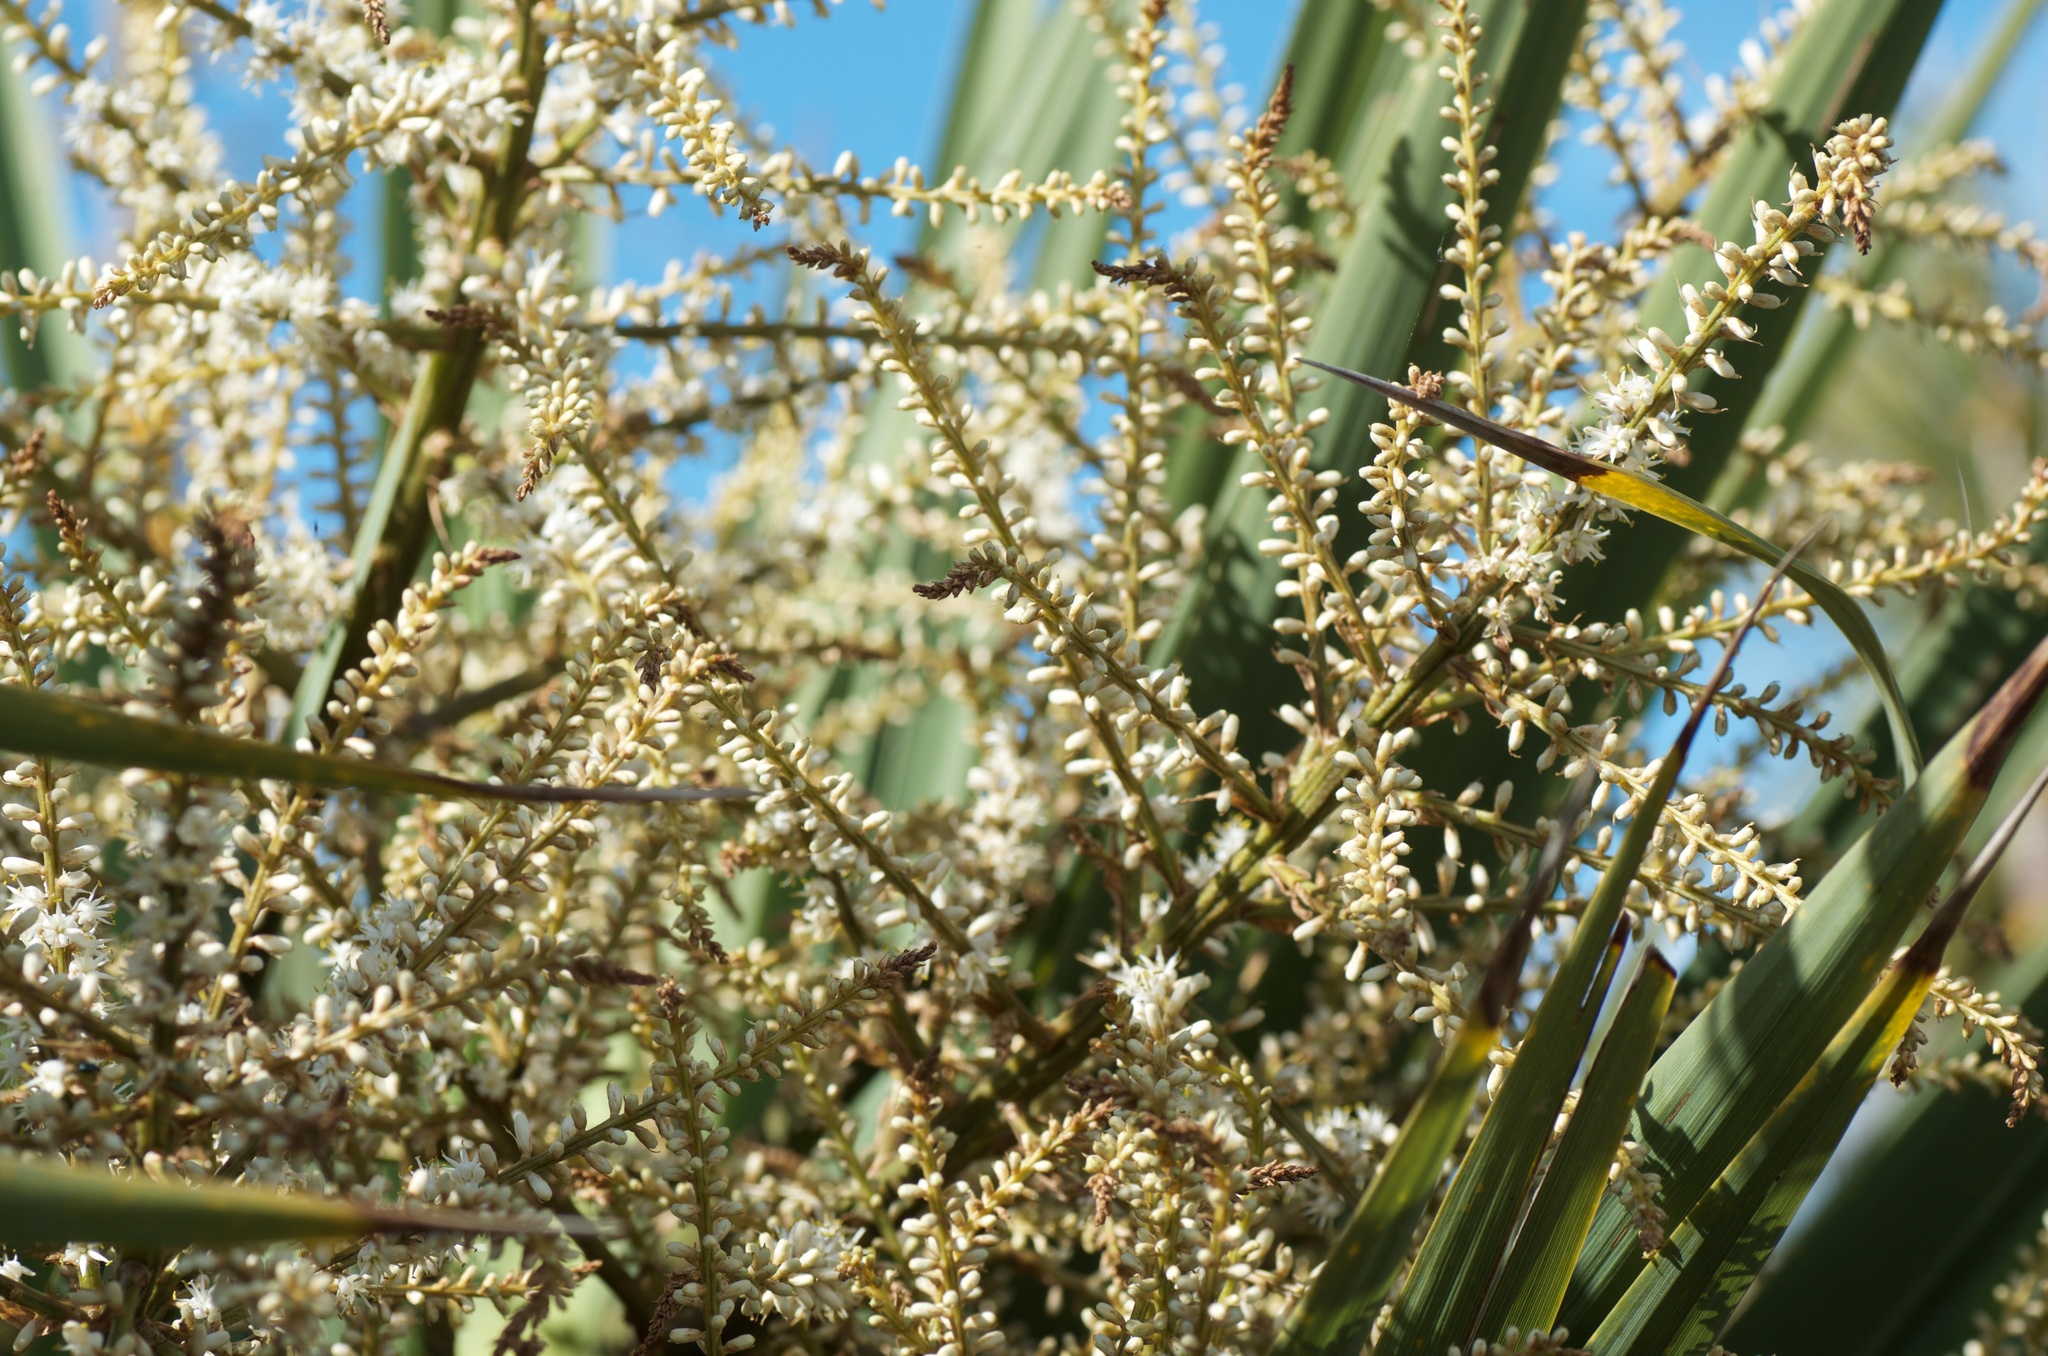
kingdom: Plantae
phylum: Tracheophyta
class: Liliopsida
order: Asparagales
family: Asparagaceae
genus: Cordyline
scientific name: Cordyline australis
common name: Cabbage-palm
